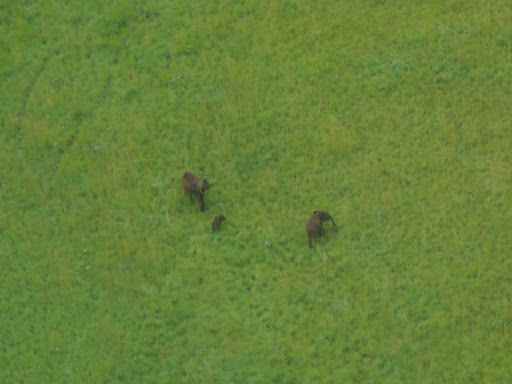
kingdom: Animalia
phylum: Chordata
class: Mammalia
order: Proboscidea
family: Elephantidae
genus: Loxodonta
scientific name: Loxodonta cyclotis
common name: African forest elephant
